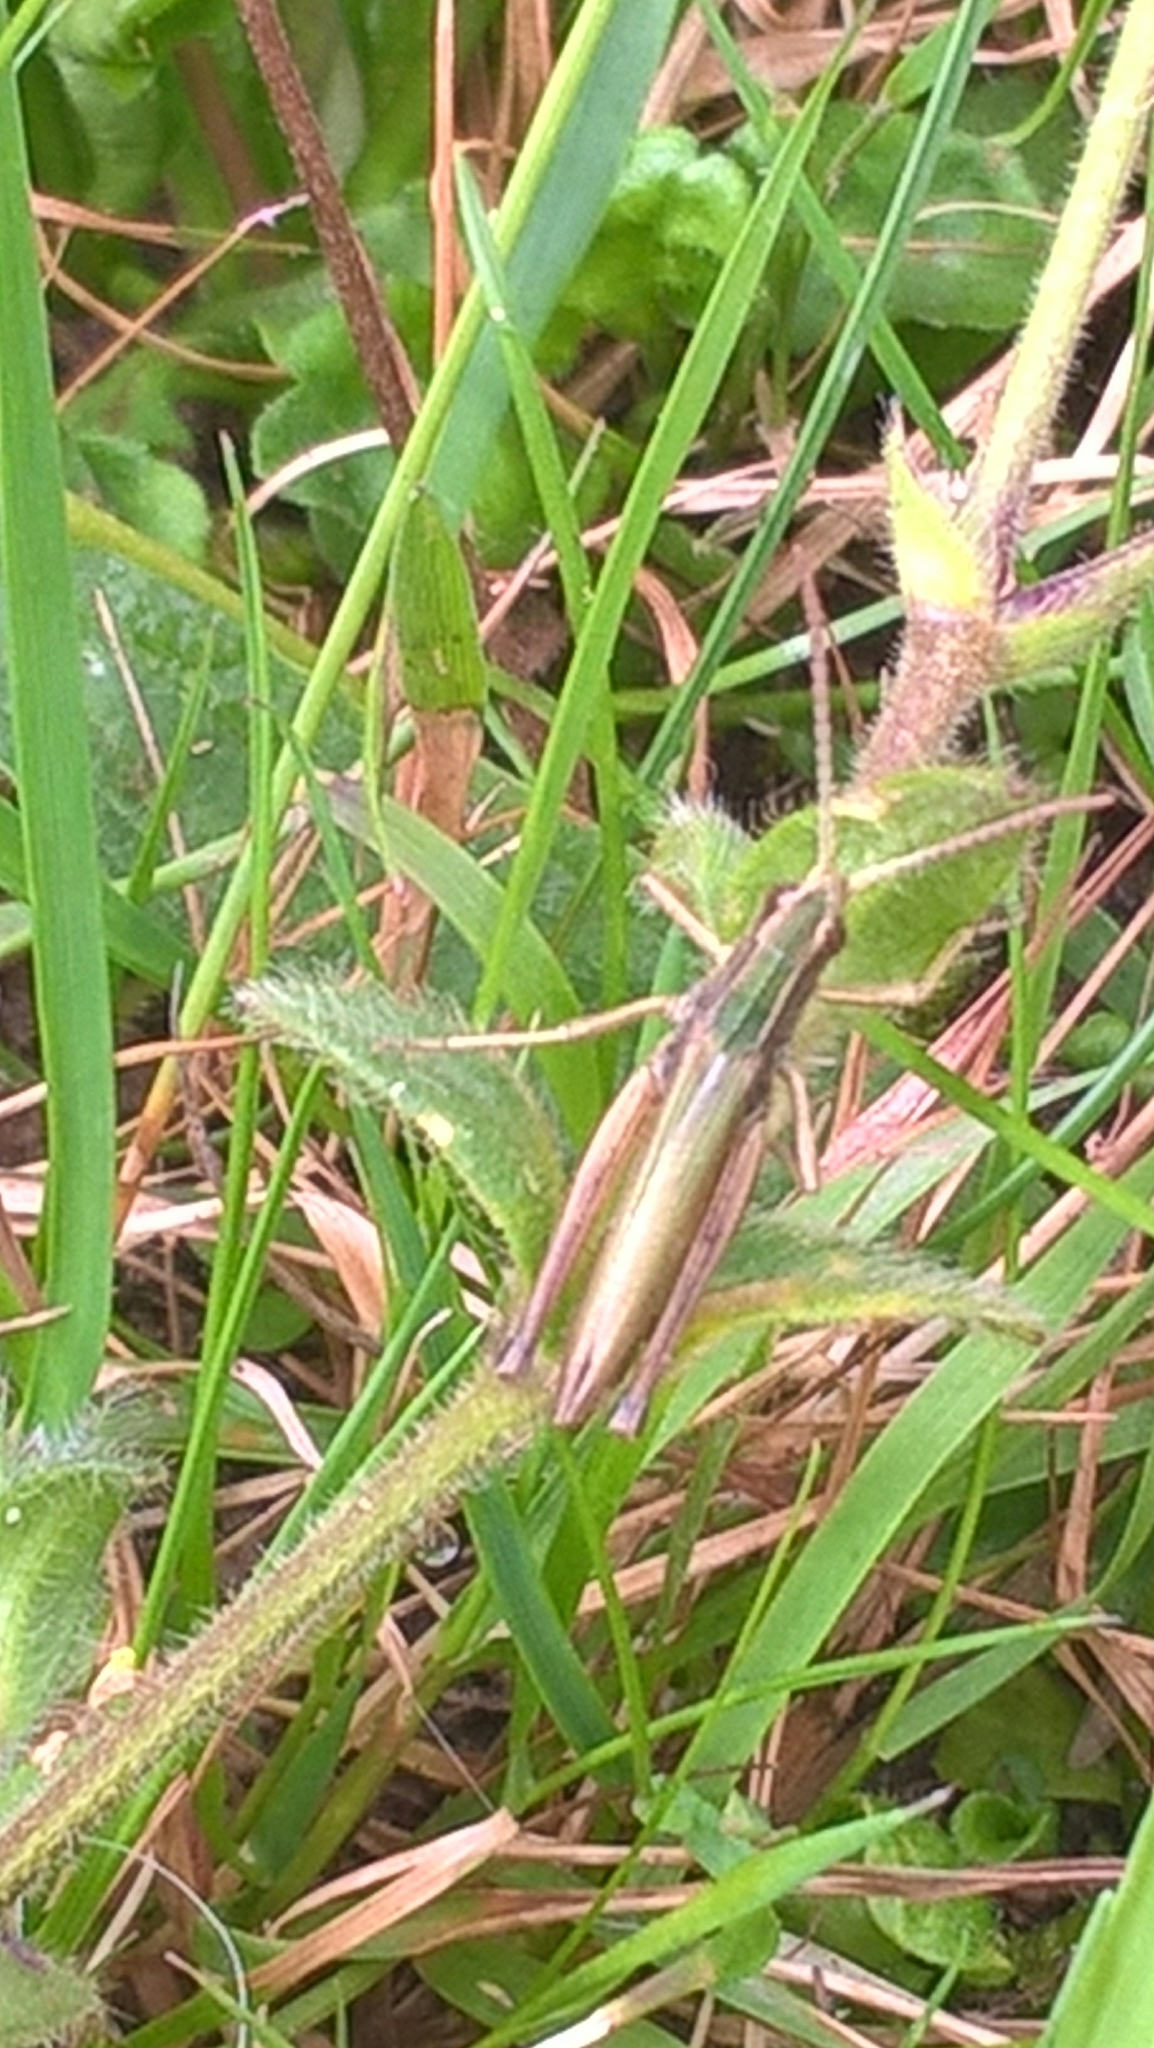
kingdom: Animalia
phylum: Arthropoda
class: Insecta
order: Orthoptera
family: Acrididae
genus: Chorthippus
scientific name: Chorthippus albomarginatus
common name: Lesser marsh grasshopper
